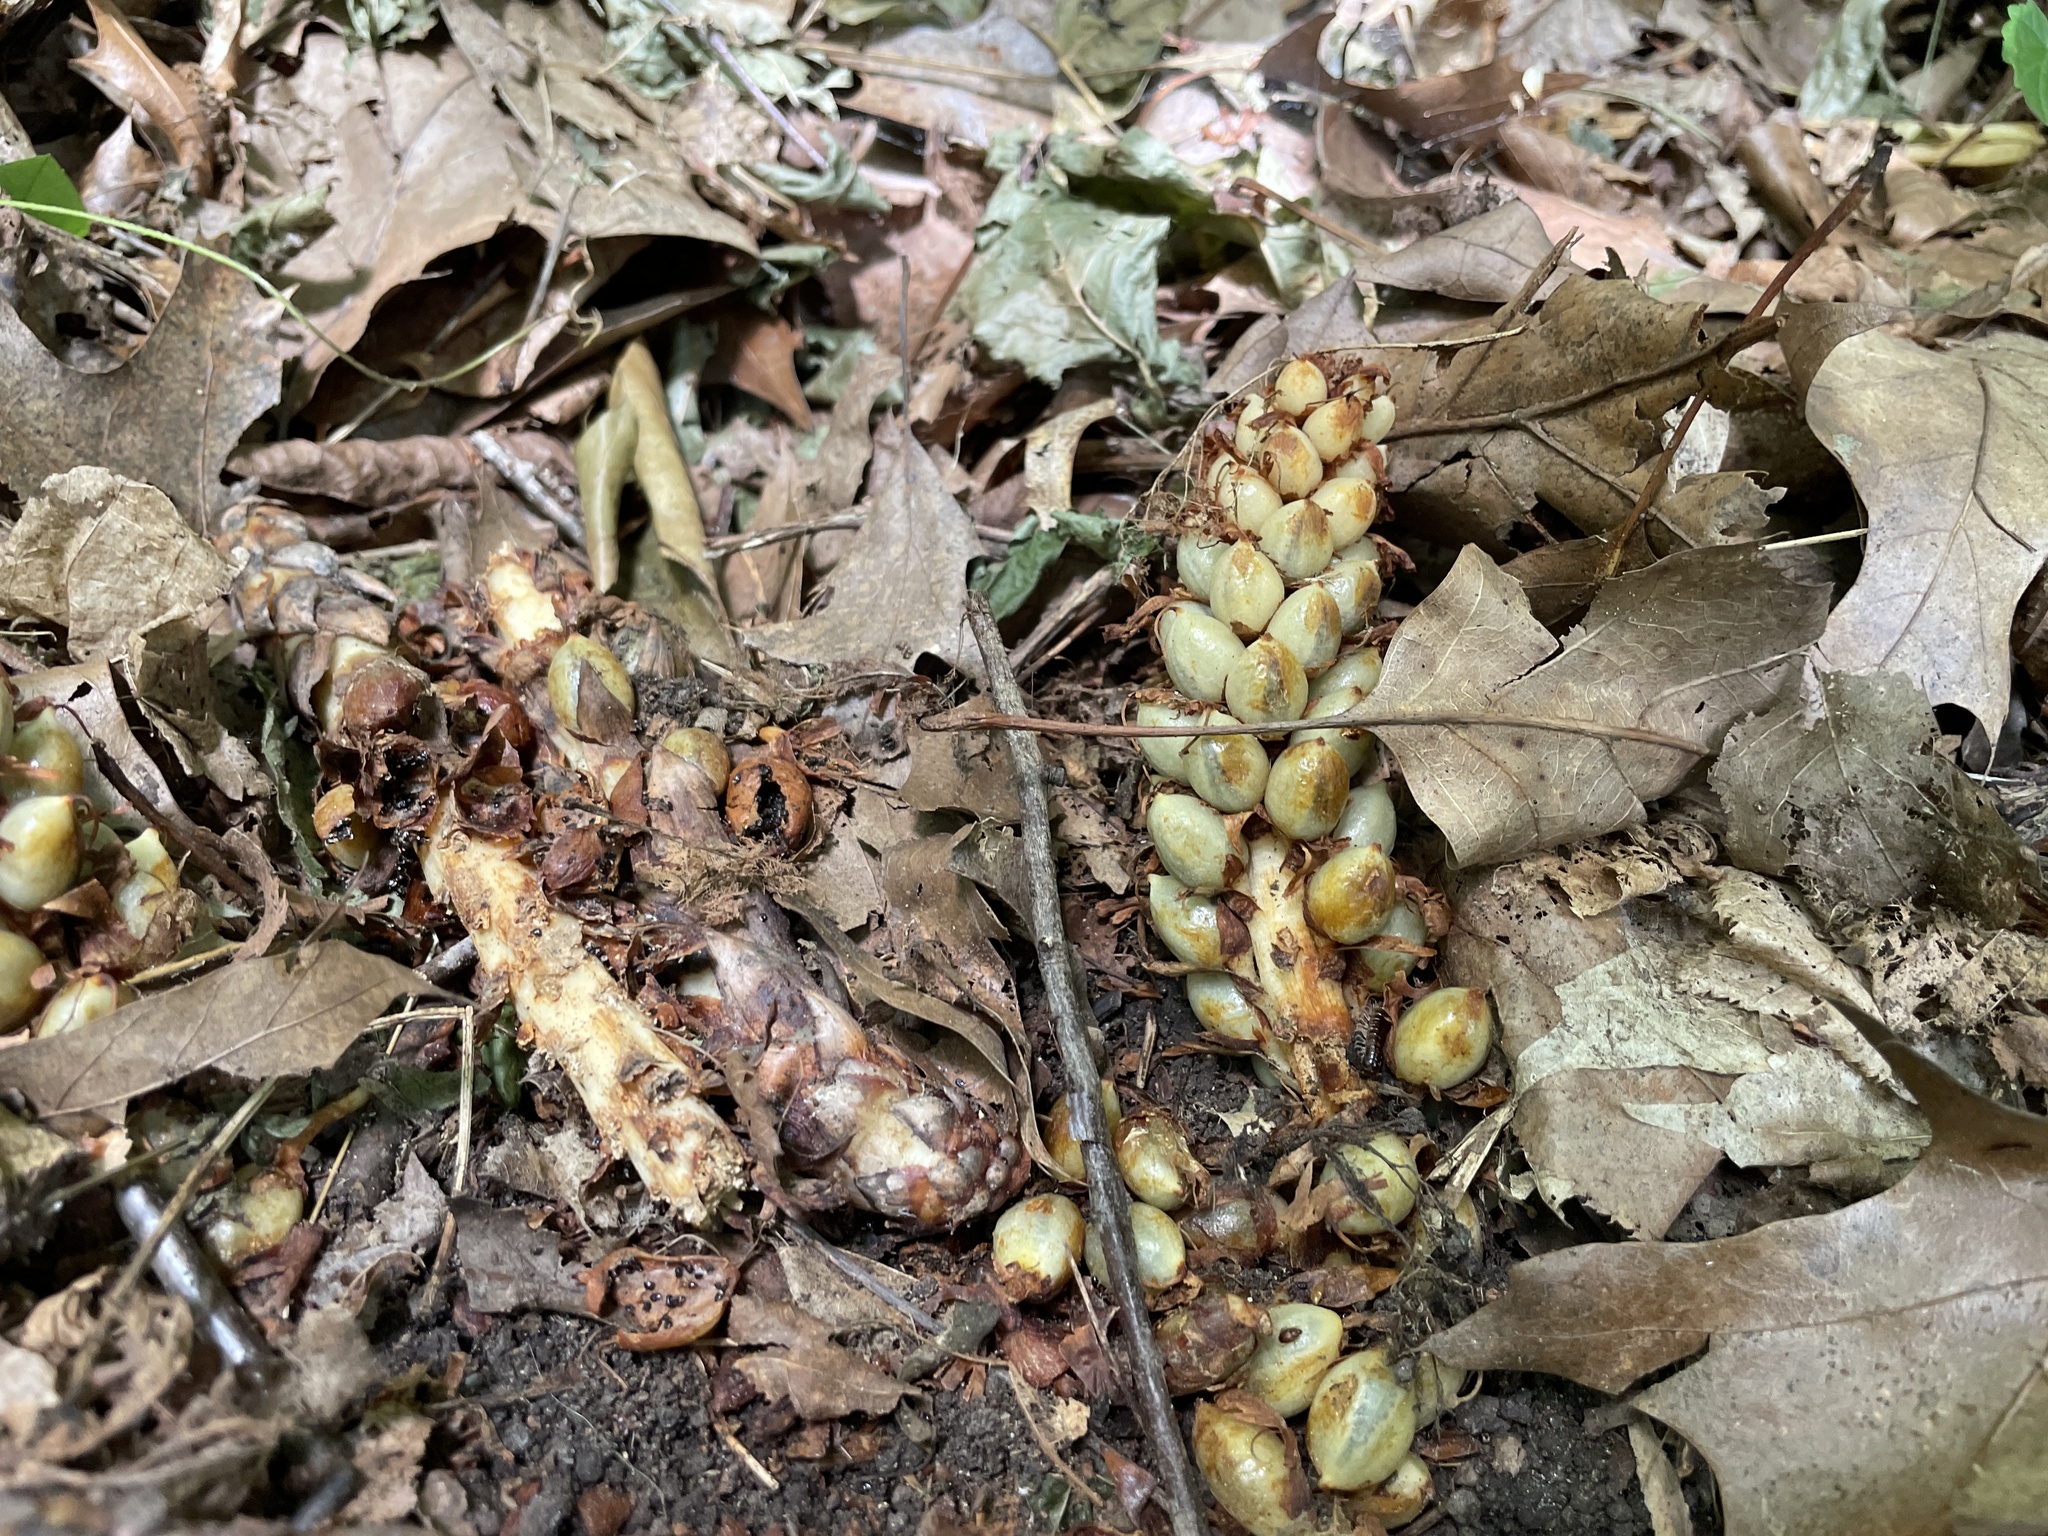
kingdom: Plantae
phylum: Tracheophyta
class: Magnoliopsida
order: Lamiales
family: Orobanchaceae
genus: Conopholis
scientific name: Conopholis americana
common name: American cancer-root
